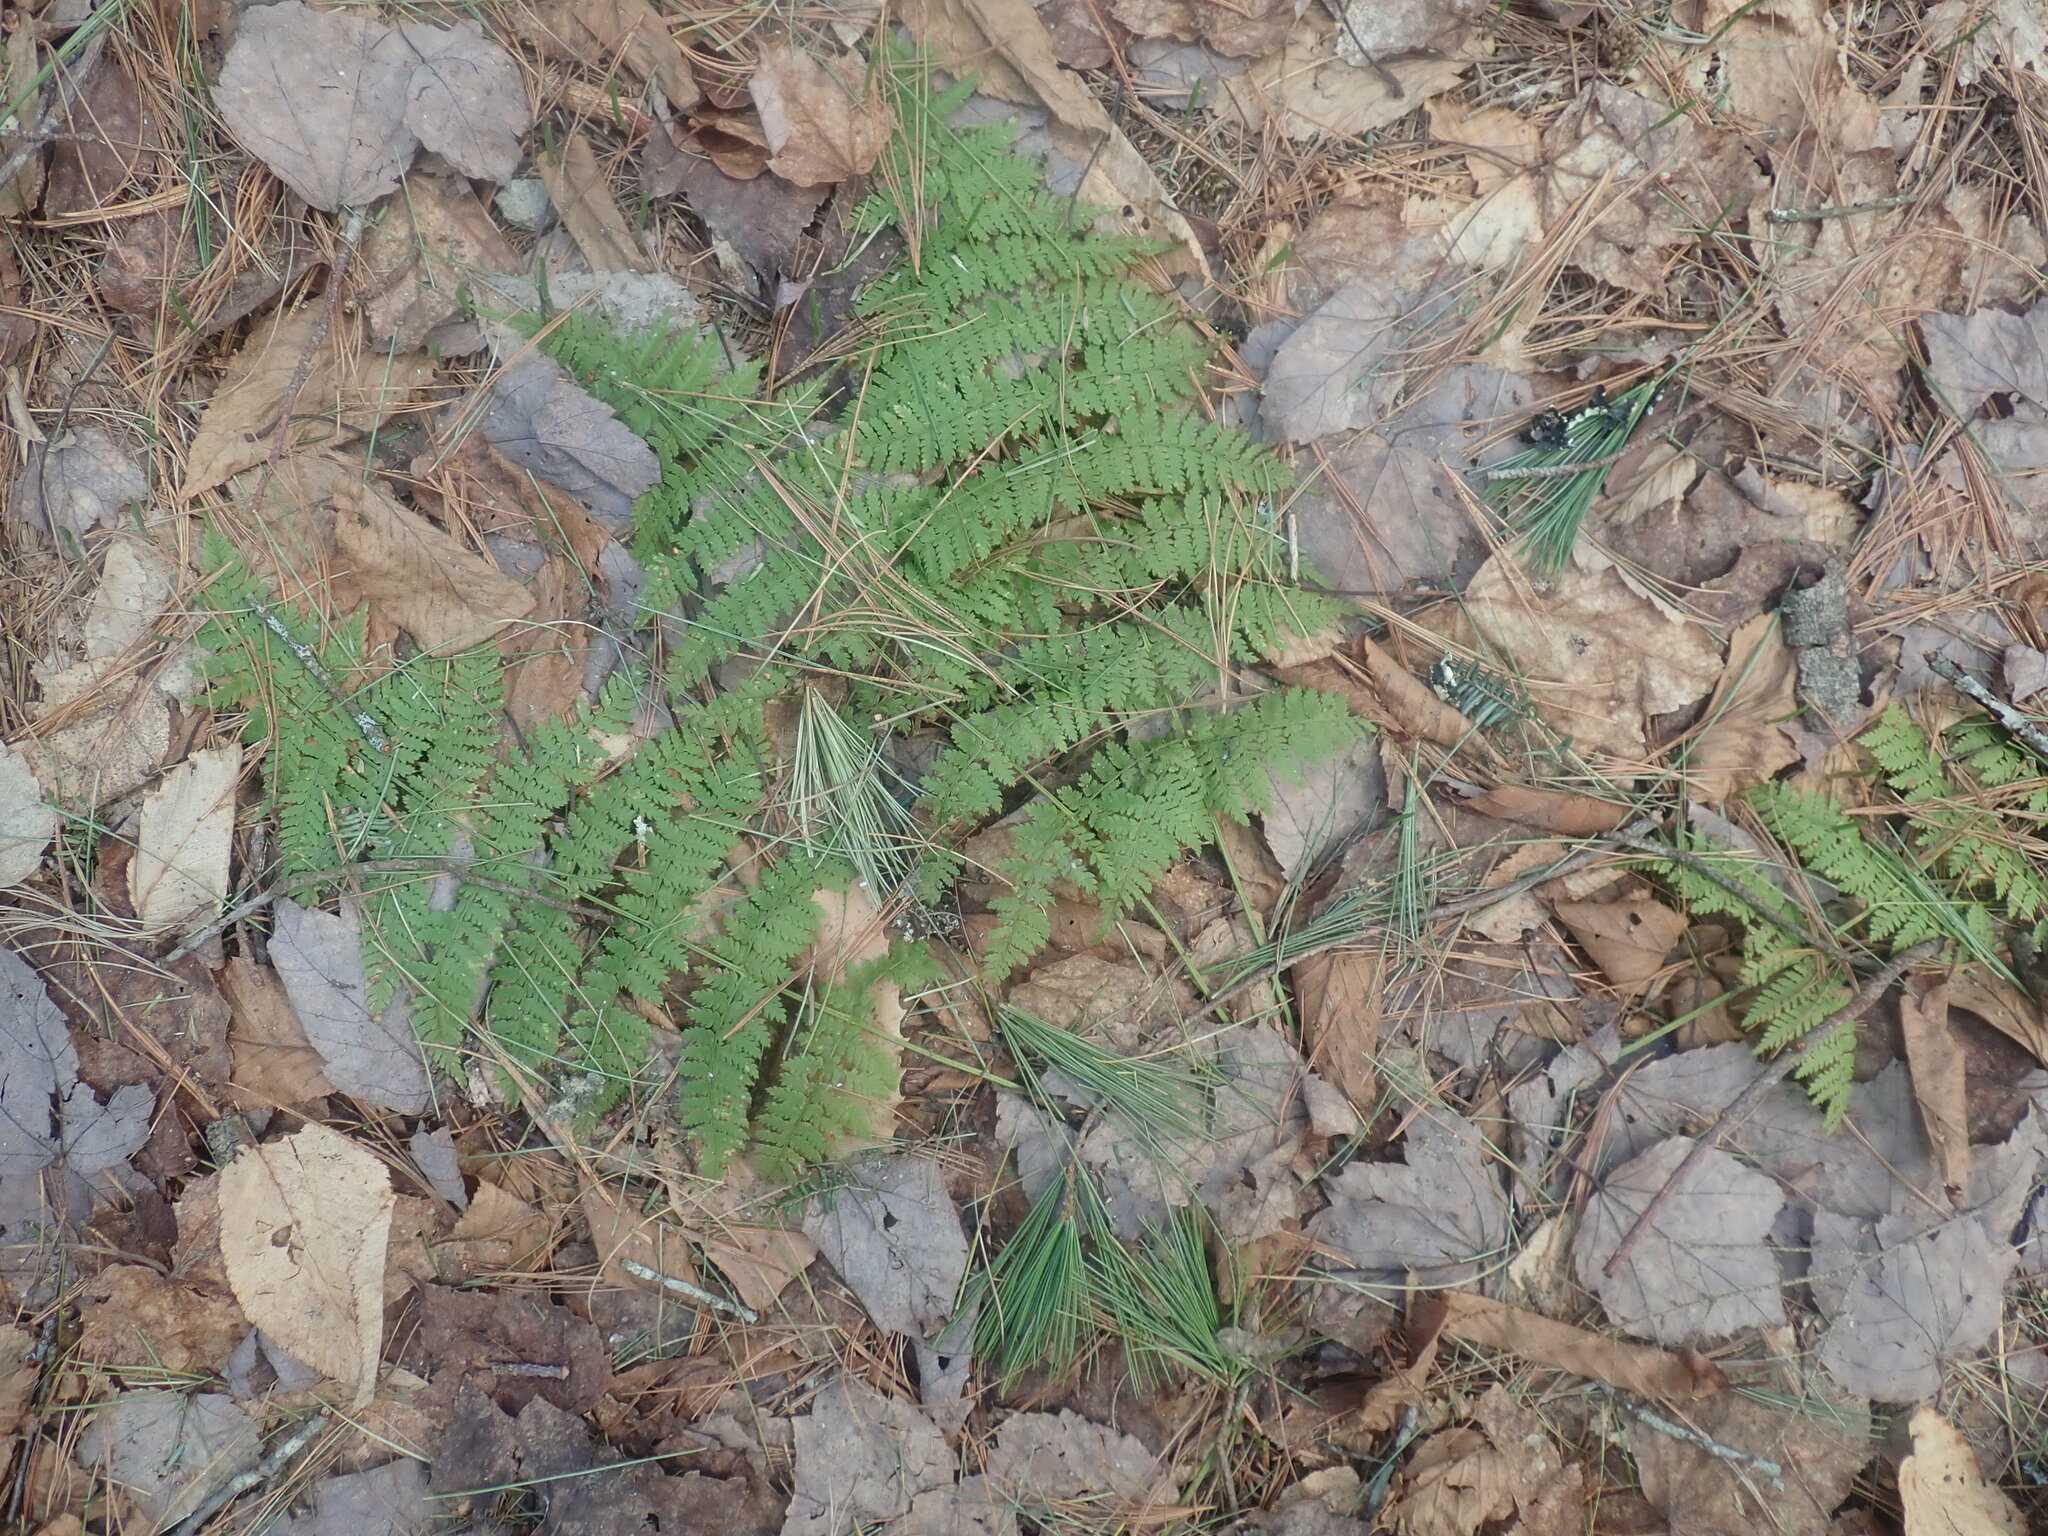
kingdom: Plantae
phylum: Tracheophyta
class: Polypodiopsida
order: Polypodiales
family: Dryopteridaceae
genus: Dryopteris
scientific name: Dryopteris intermedia
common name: Evergreen wood fern
